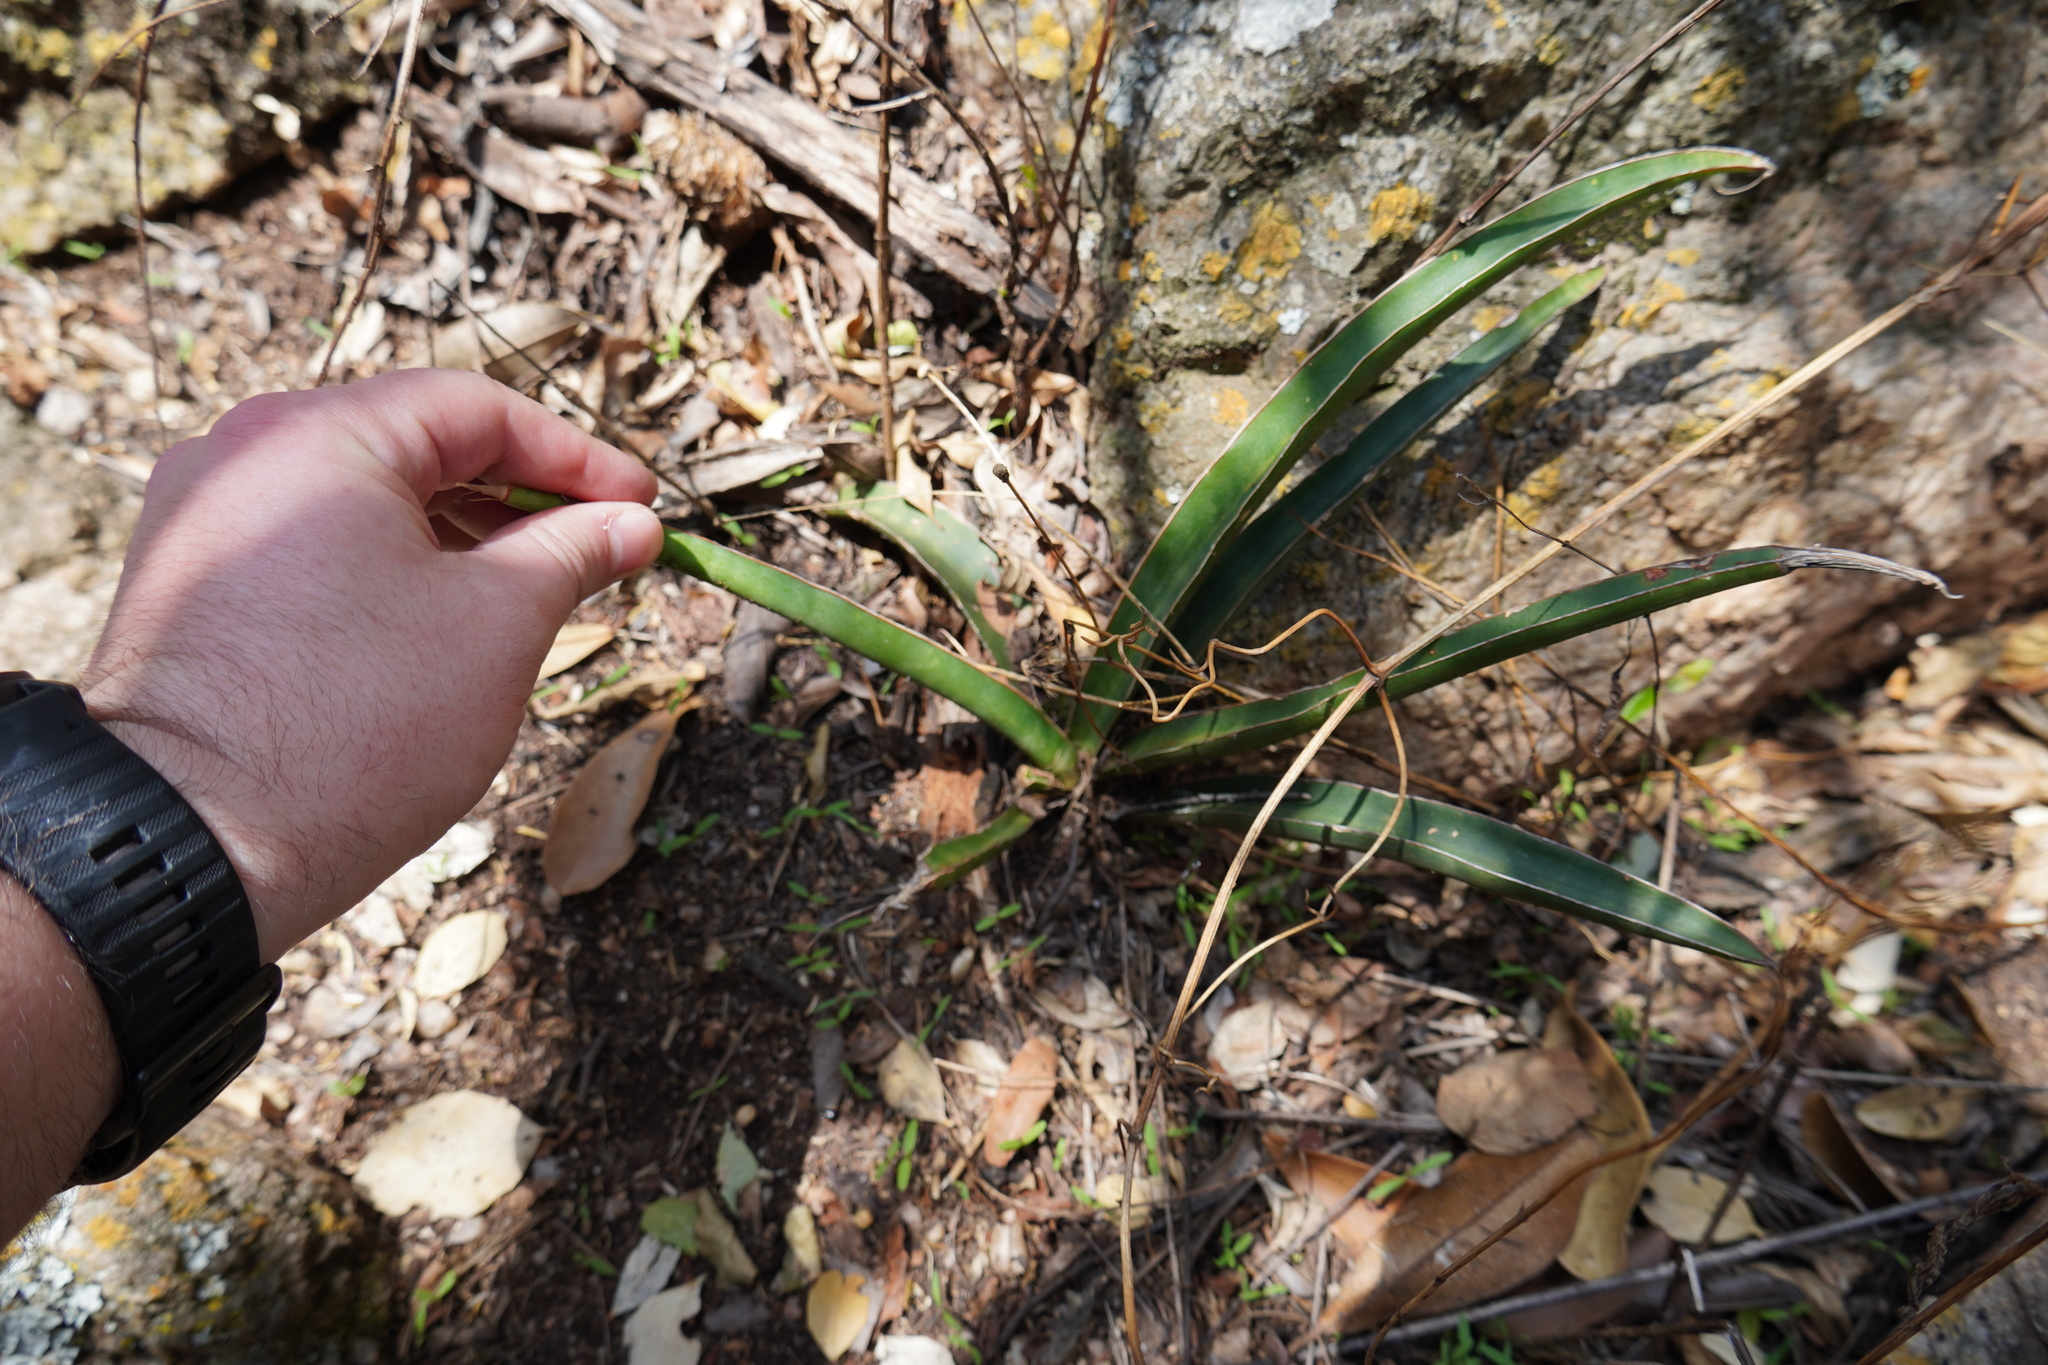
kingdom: Plantae
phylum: Tracheophyta
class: Liliopsida
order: Asparagales
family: Asparagaceae
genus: Dracaena
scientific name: Dracaena aethiopica
